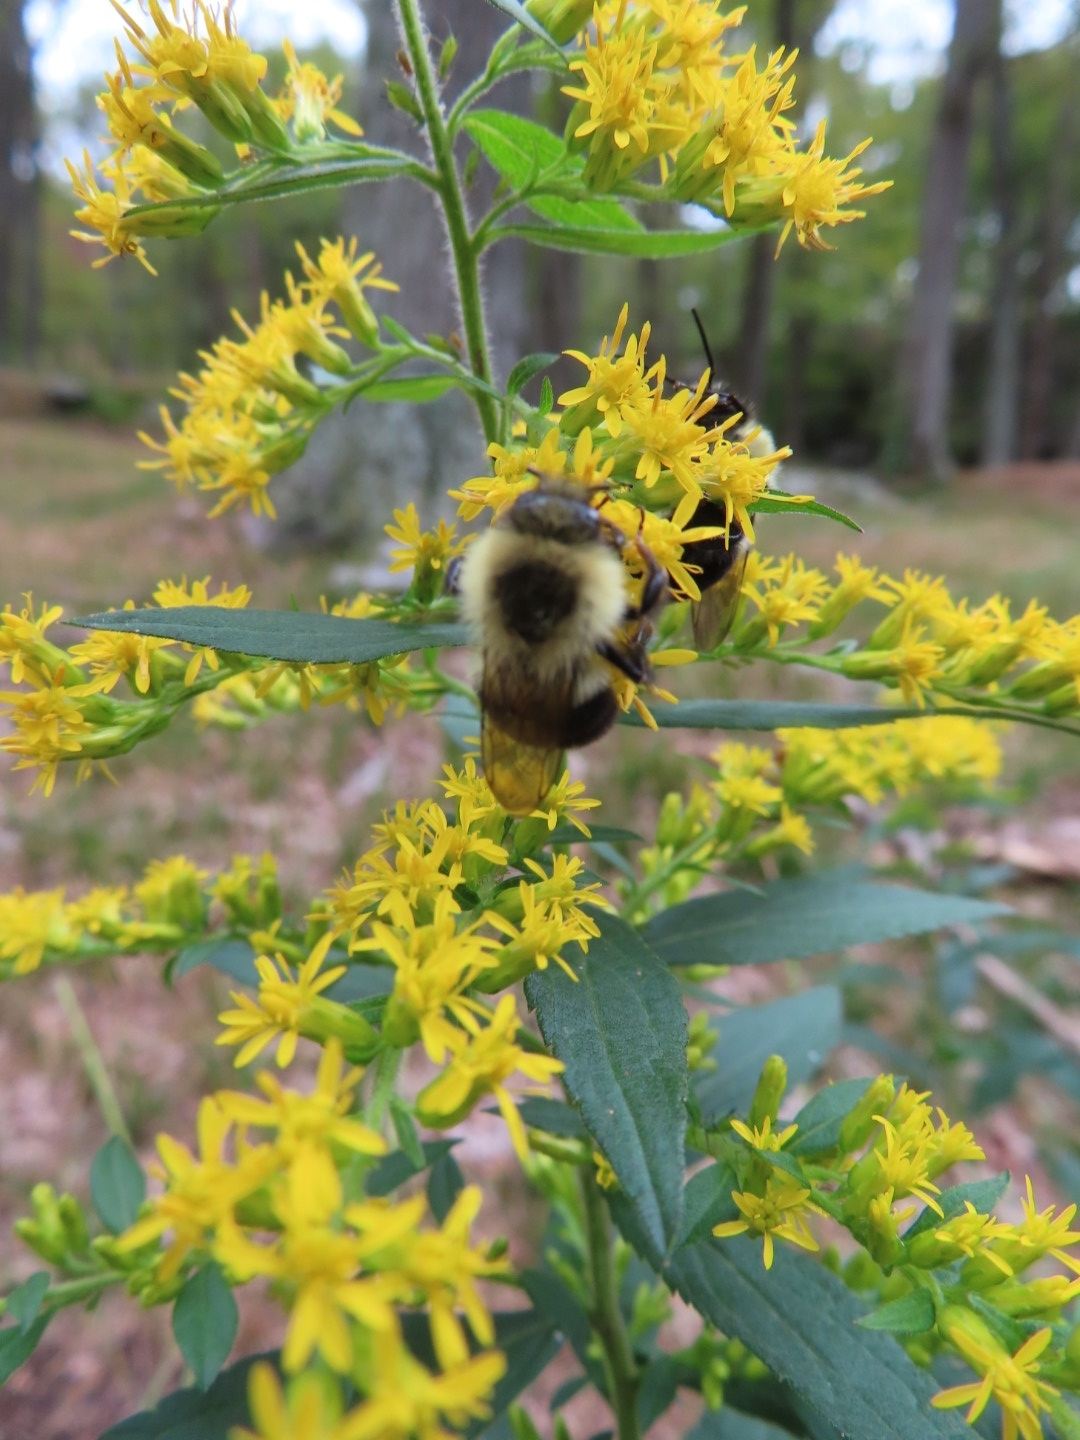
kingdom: Animalia
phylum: Arthropoda
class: Insecta
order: Hymenoptera
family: Apidae
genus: Bombus
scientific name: Bombus impatiens
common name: Common eastern bumble bee
